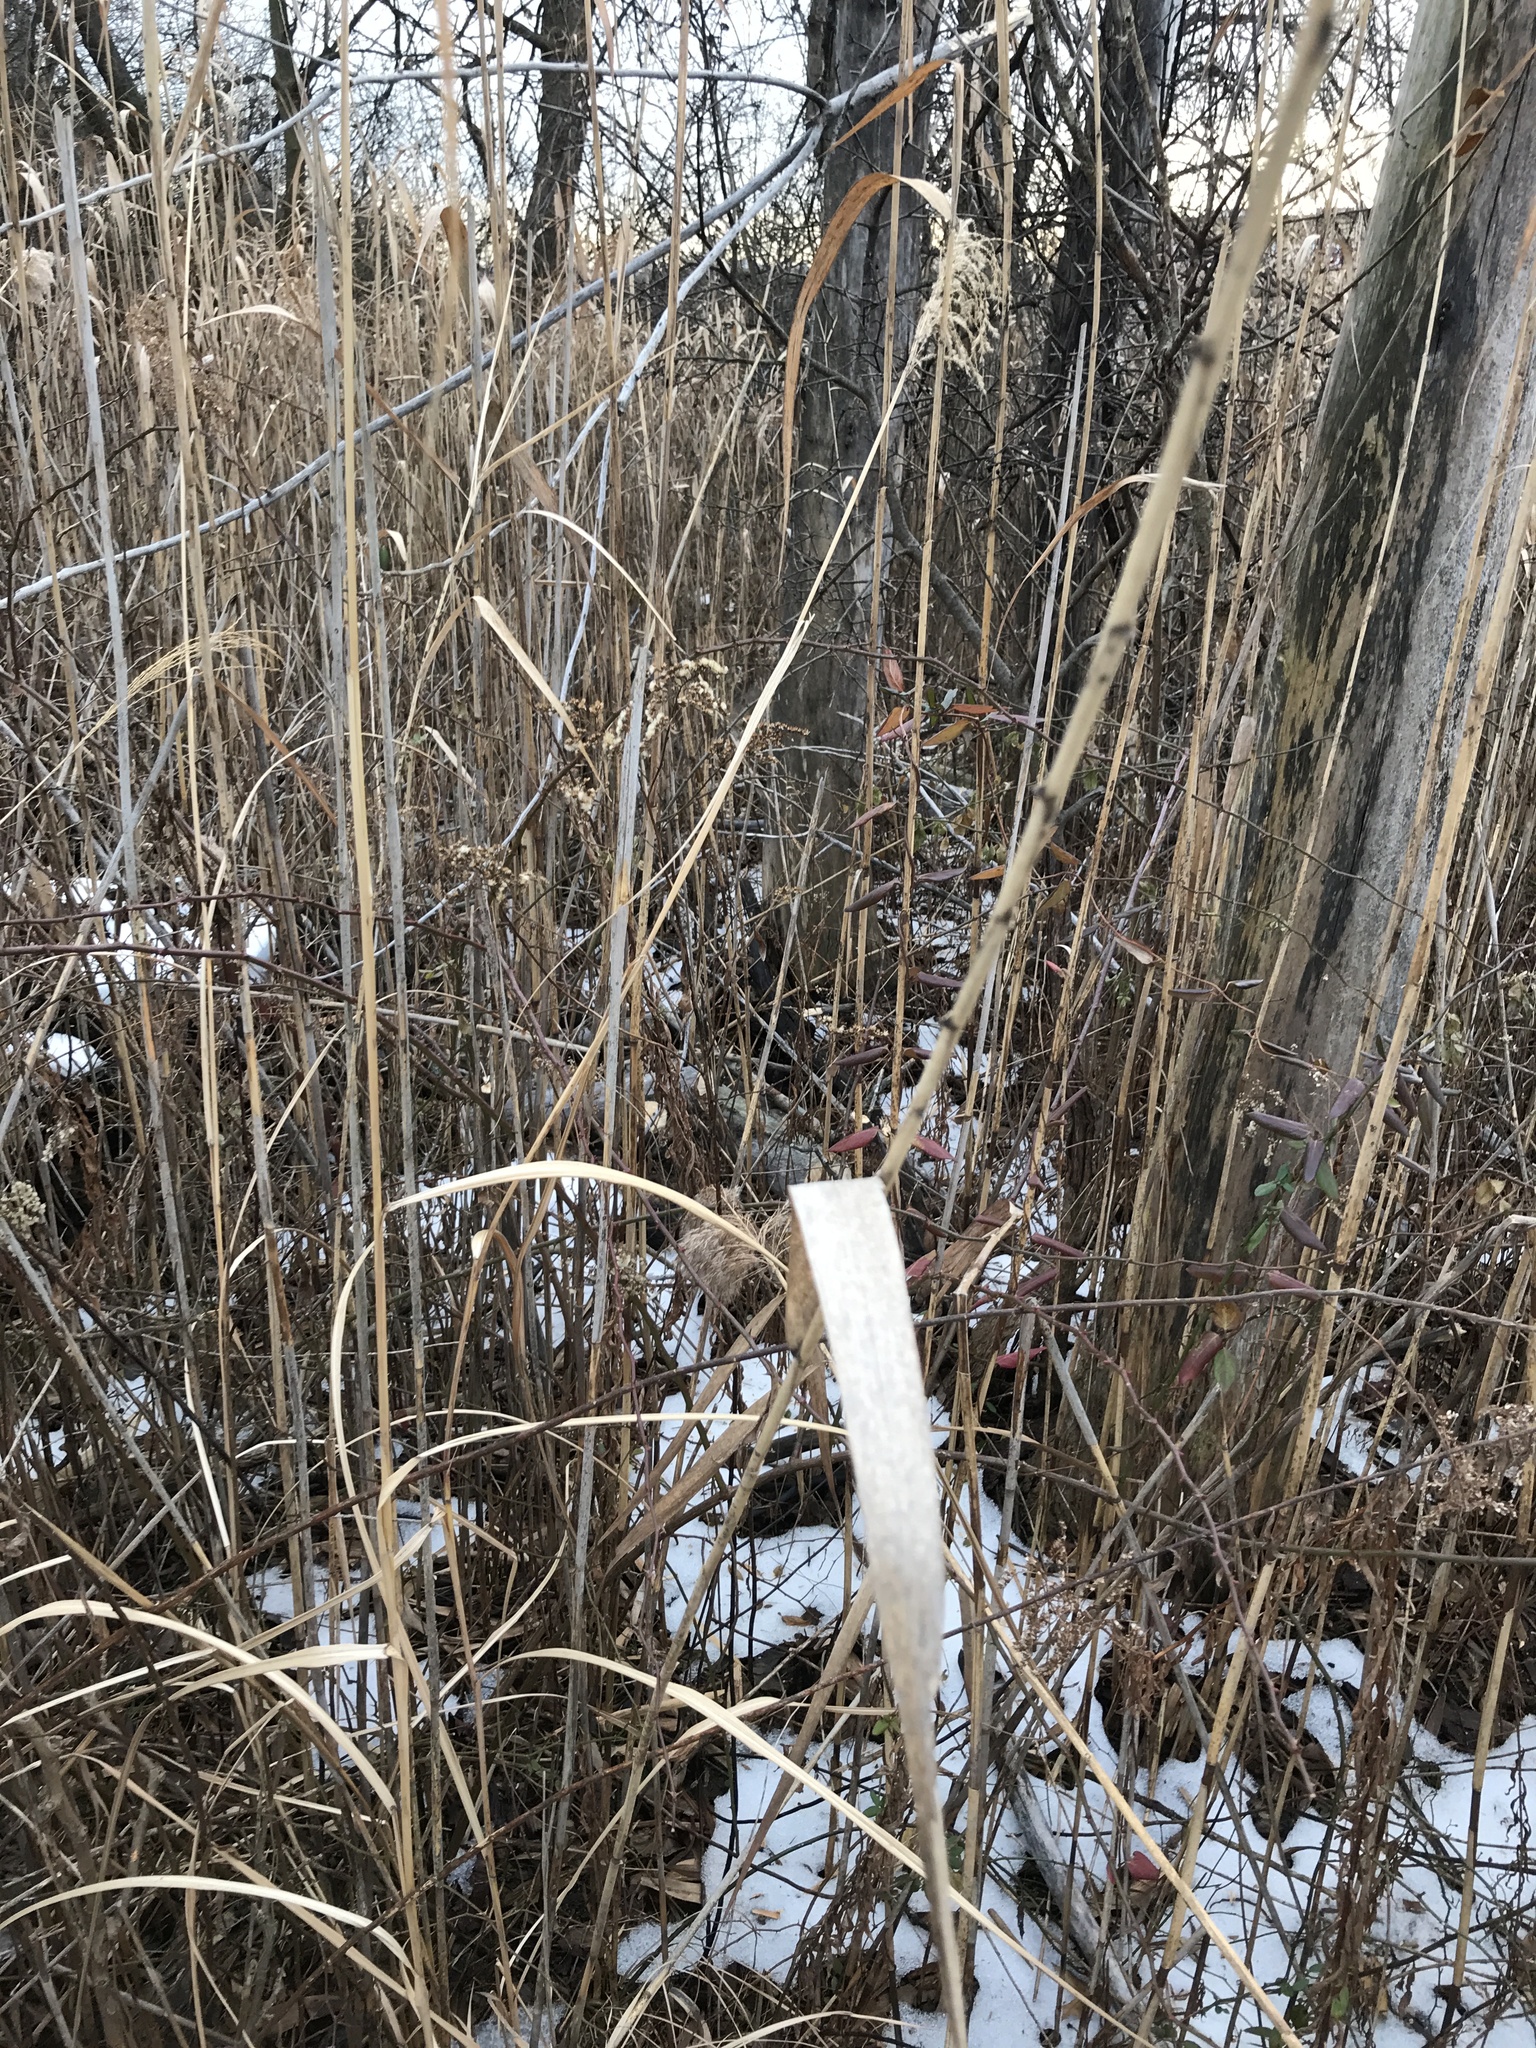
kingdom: Plantae
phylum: Tracheophyta
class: Liliopsida
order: Poales
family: Poaceae
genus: Phragmites
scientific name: Phragmites australis
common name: Common reed
